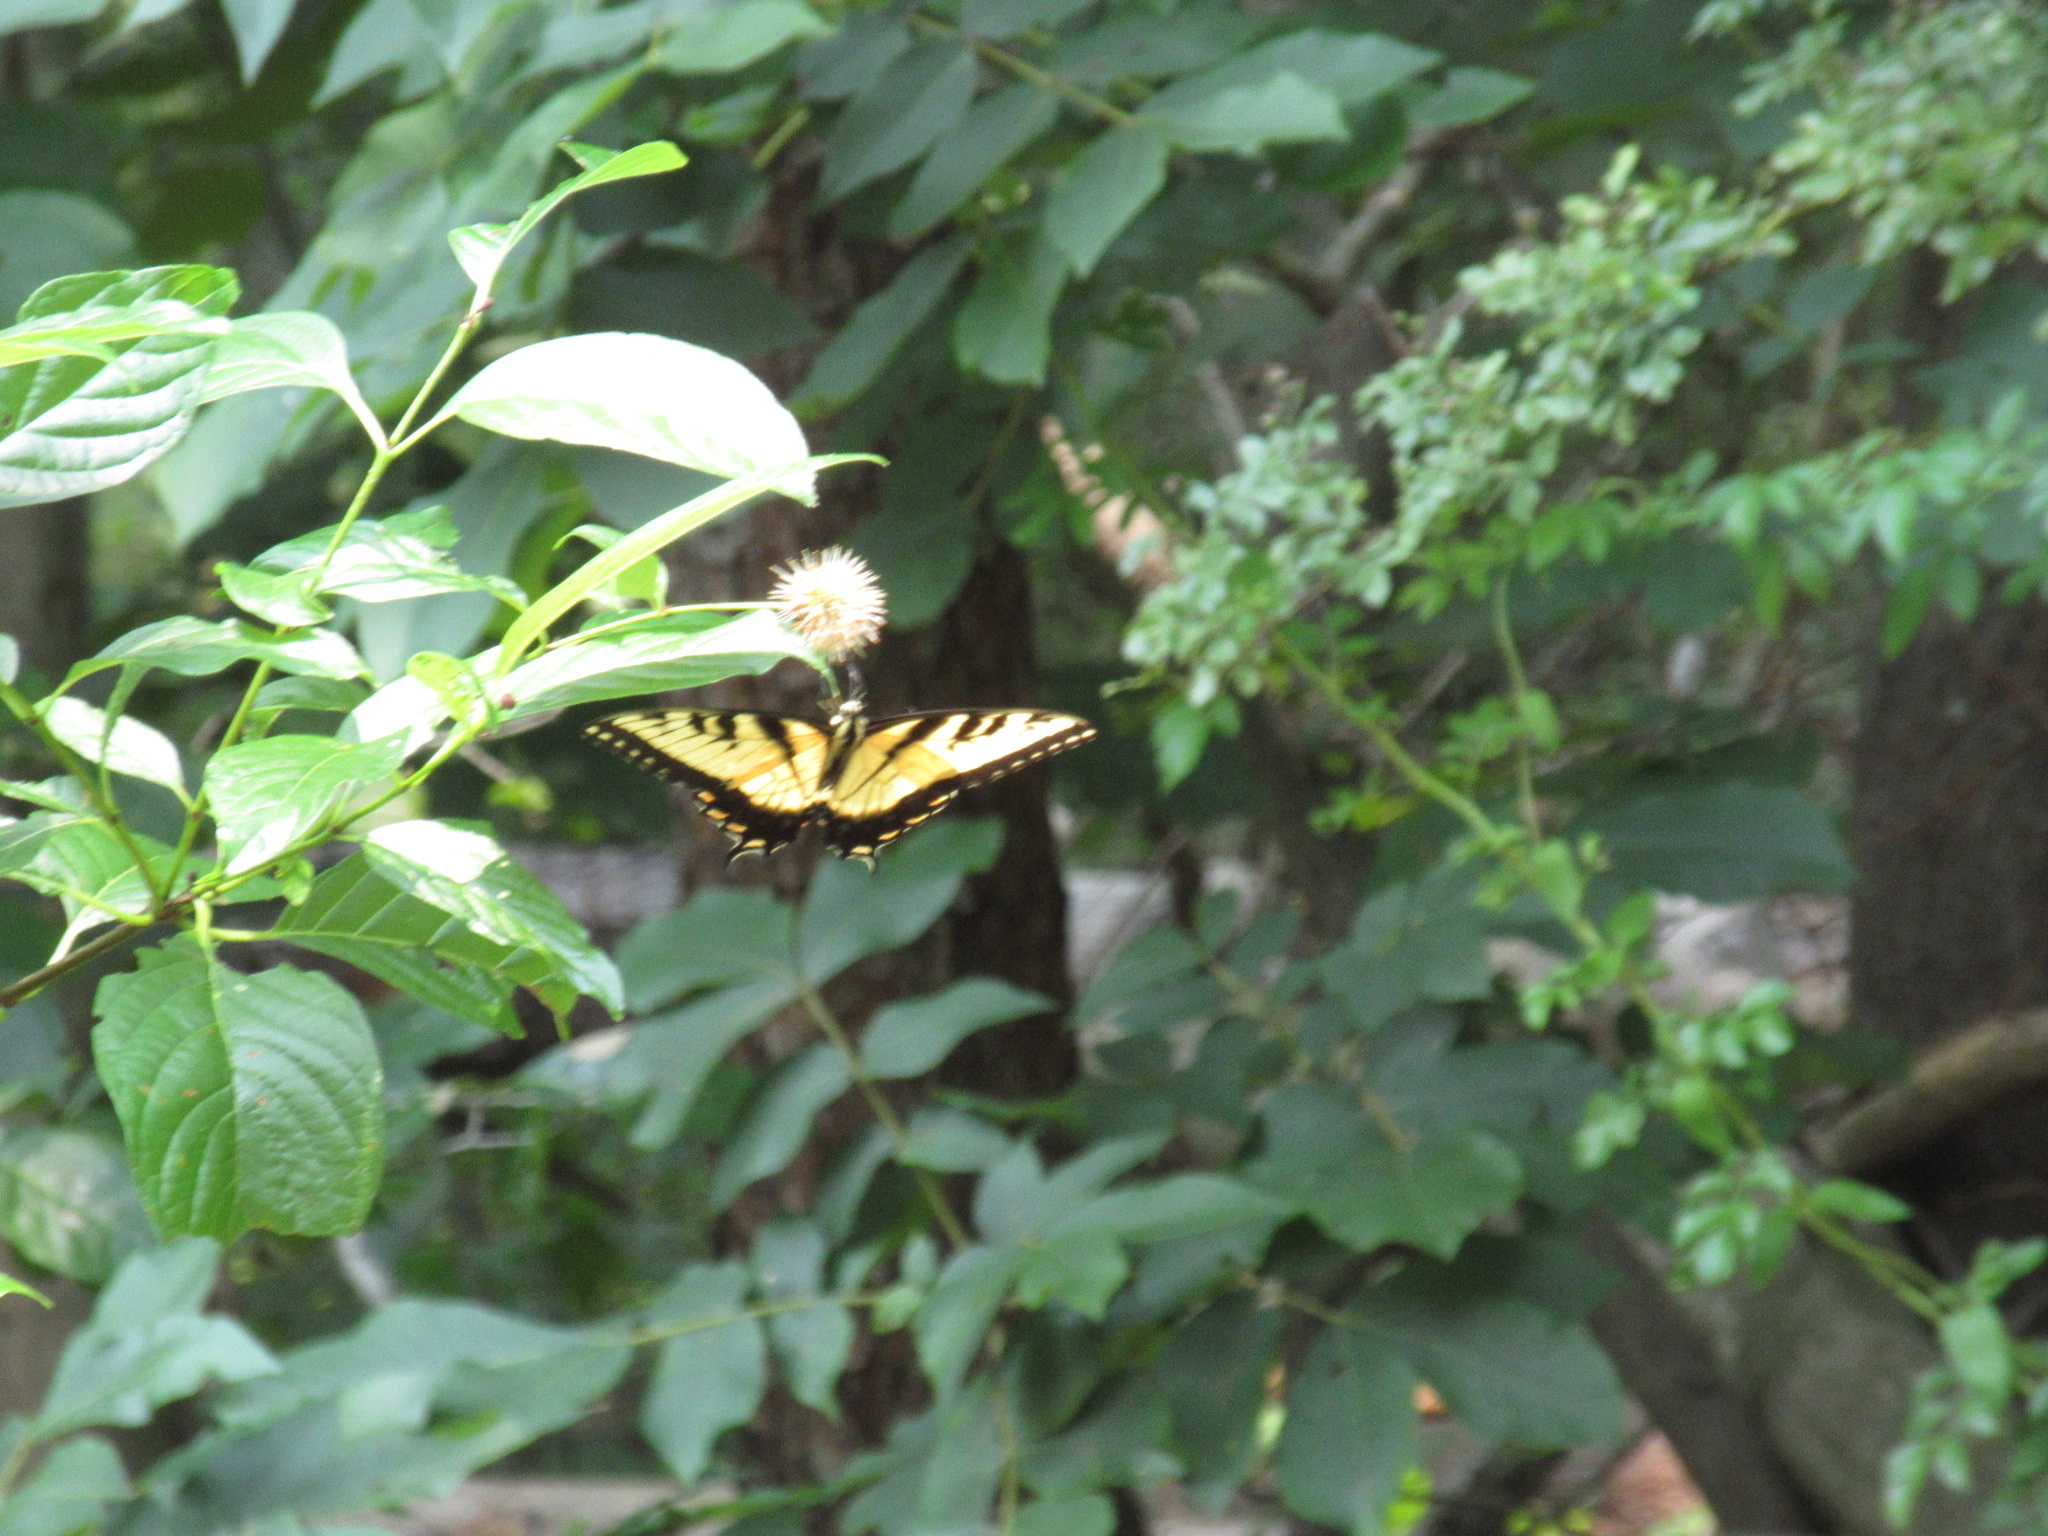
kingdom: Animalia
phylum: Arthropoda
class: Insecta
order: Lepidoptera
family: Papilionidae
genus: Papilio
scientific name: Papilio glaucus
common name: Tiger swallowtail
